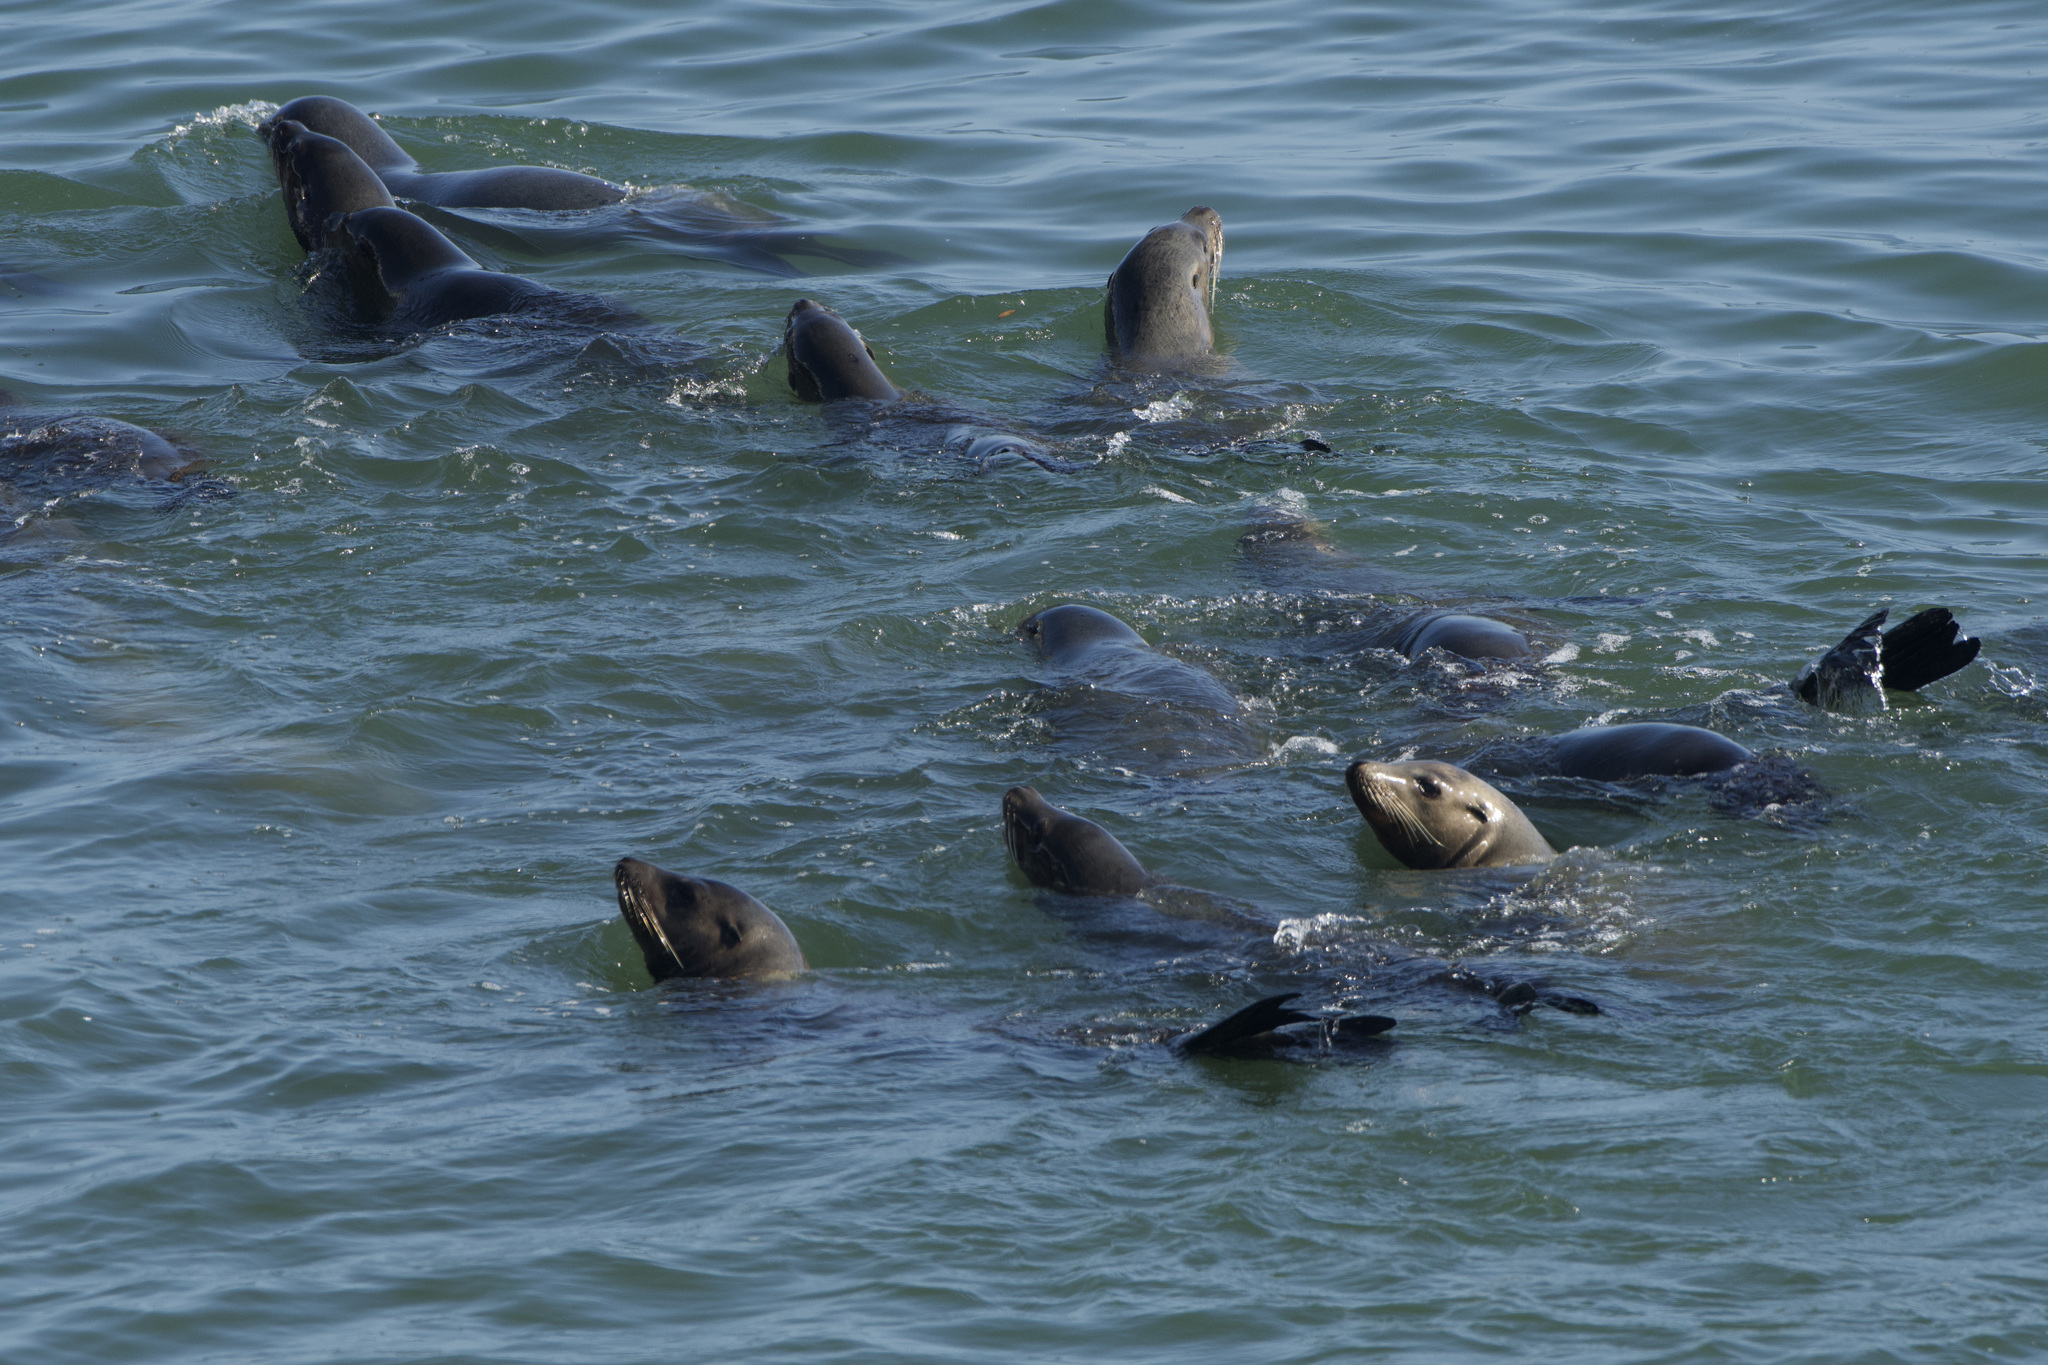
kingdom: Animalia
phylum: Chordata
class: Mammalia
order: Carnivora
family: Otariidae
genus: Zalophus
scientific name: Zalophus californianus
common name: California sea lion
